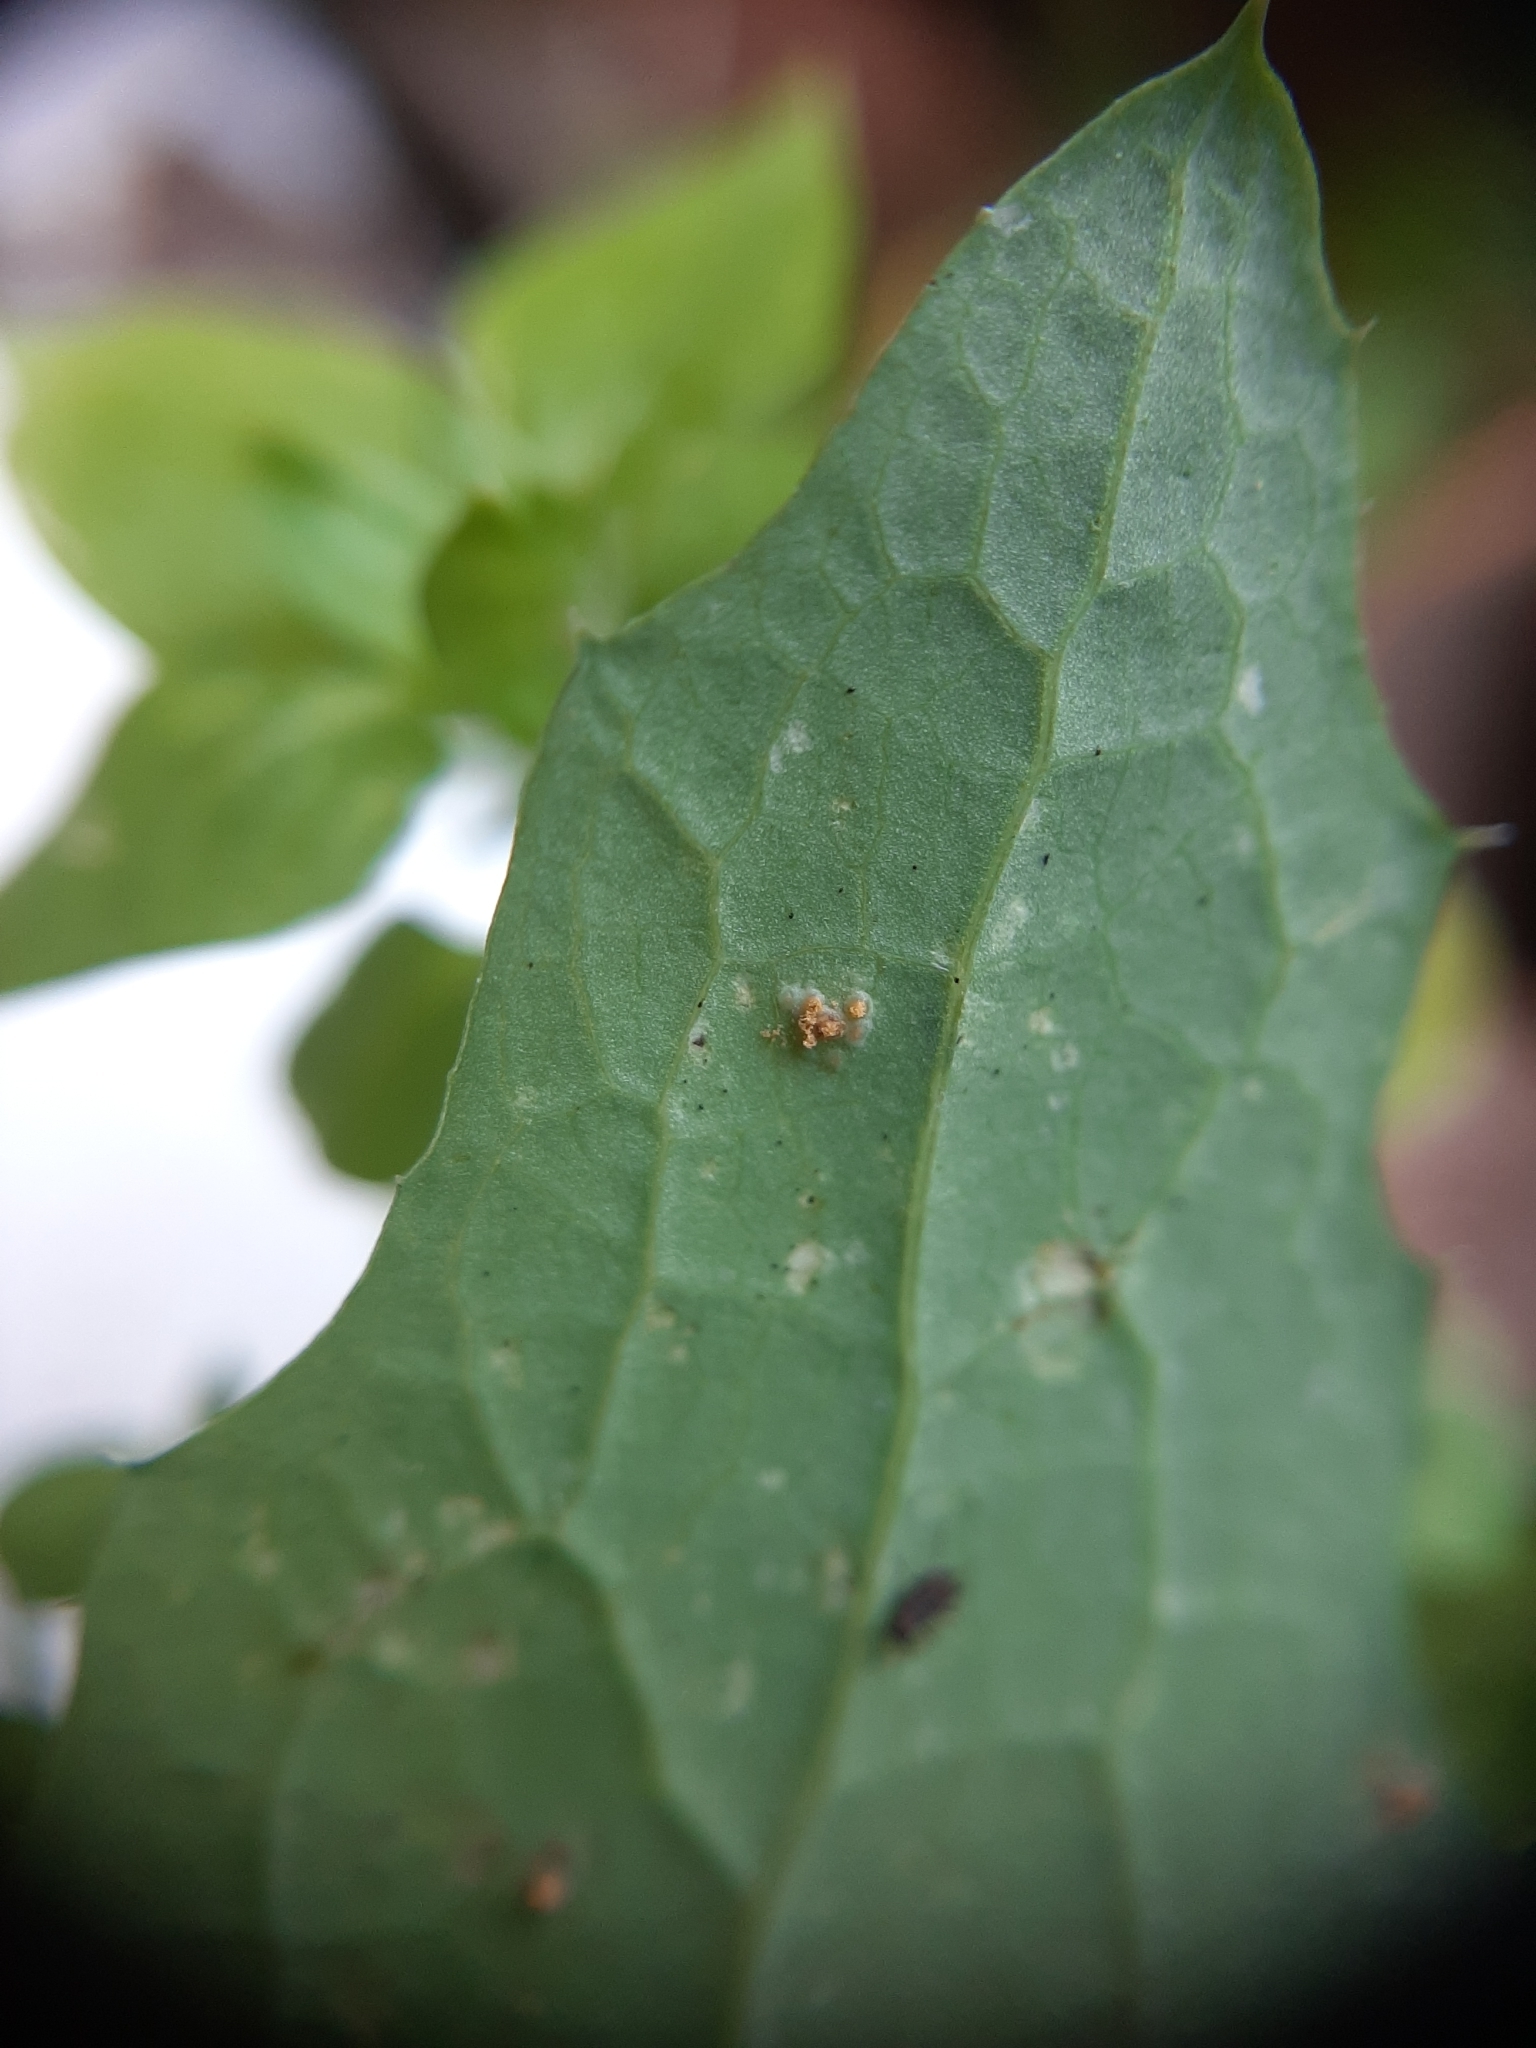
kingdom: Fungi
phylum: Basidiomycota
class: Pucciniomycetes
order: Pucciniales
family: Pucciniaceae
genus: Peristemma
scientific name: Peristemma pseudosphaeria
